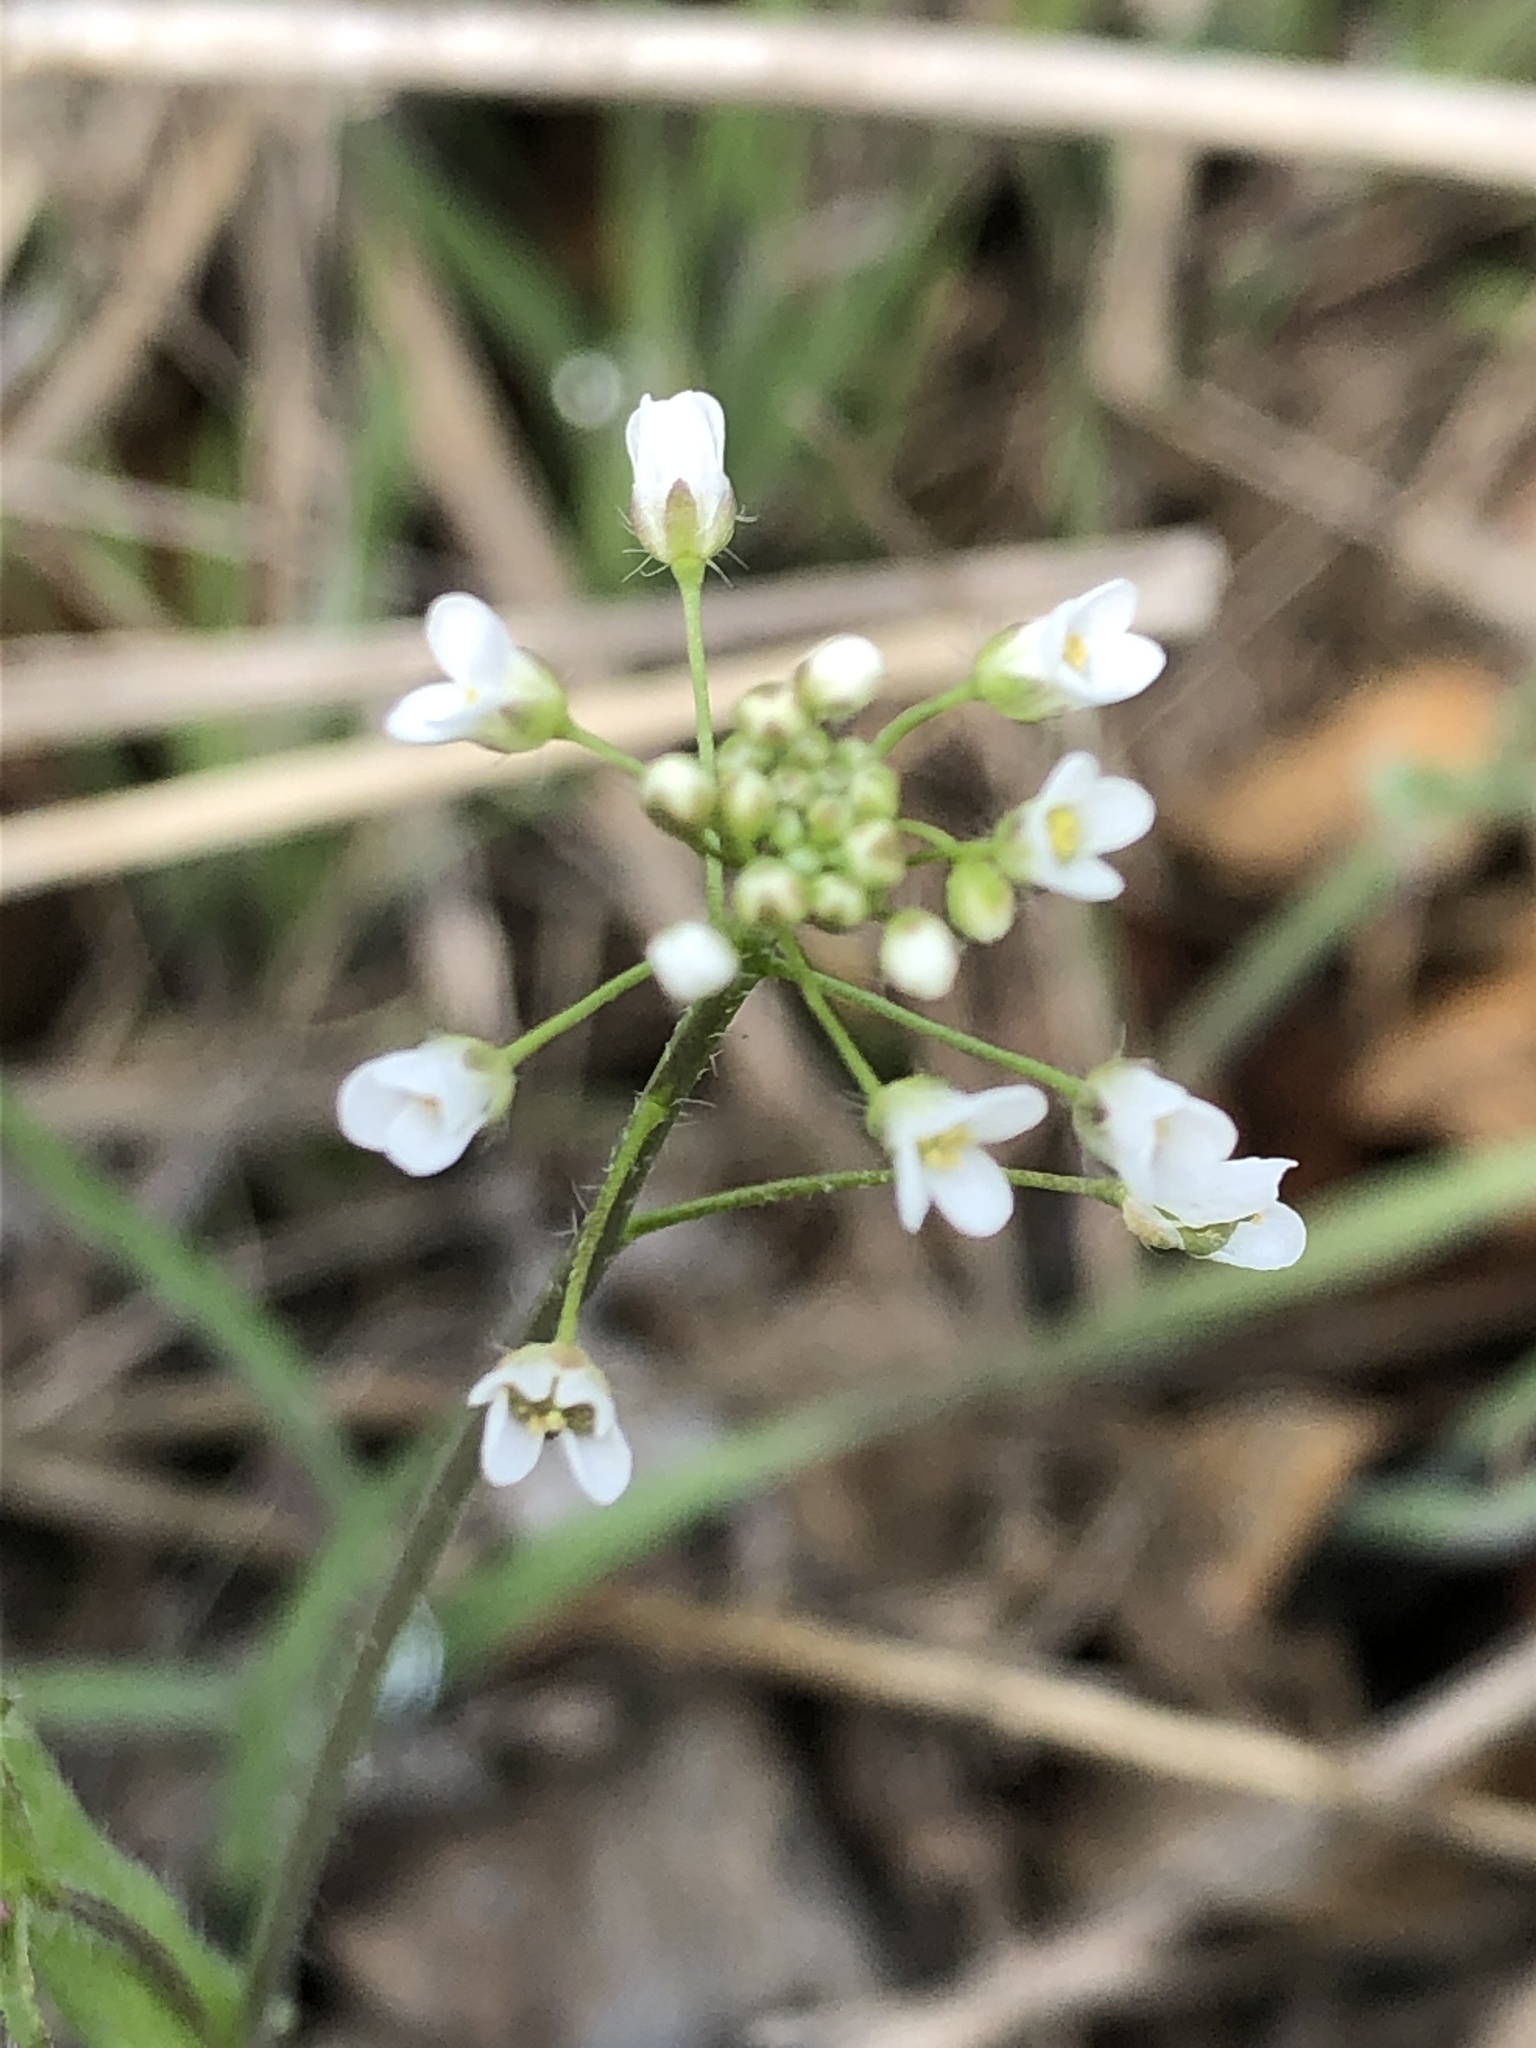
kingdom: Plantae
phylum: Tracheophyta
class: Magnoliopsida
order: Brassicales
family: Brassicaceae
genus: Capsella
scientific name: Capsella bursa-pastoris
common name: Shepherd's purse
